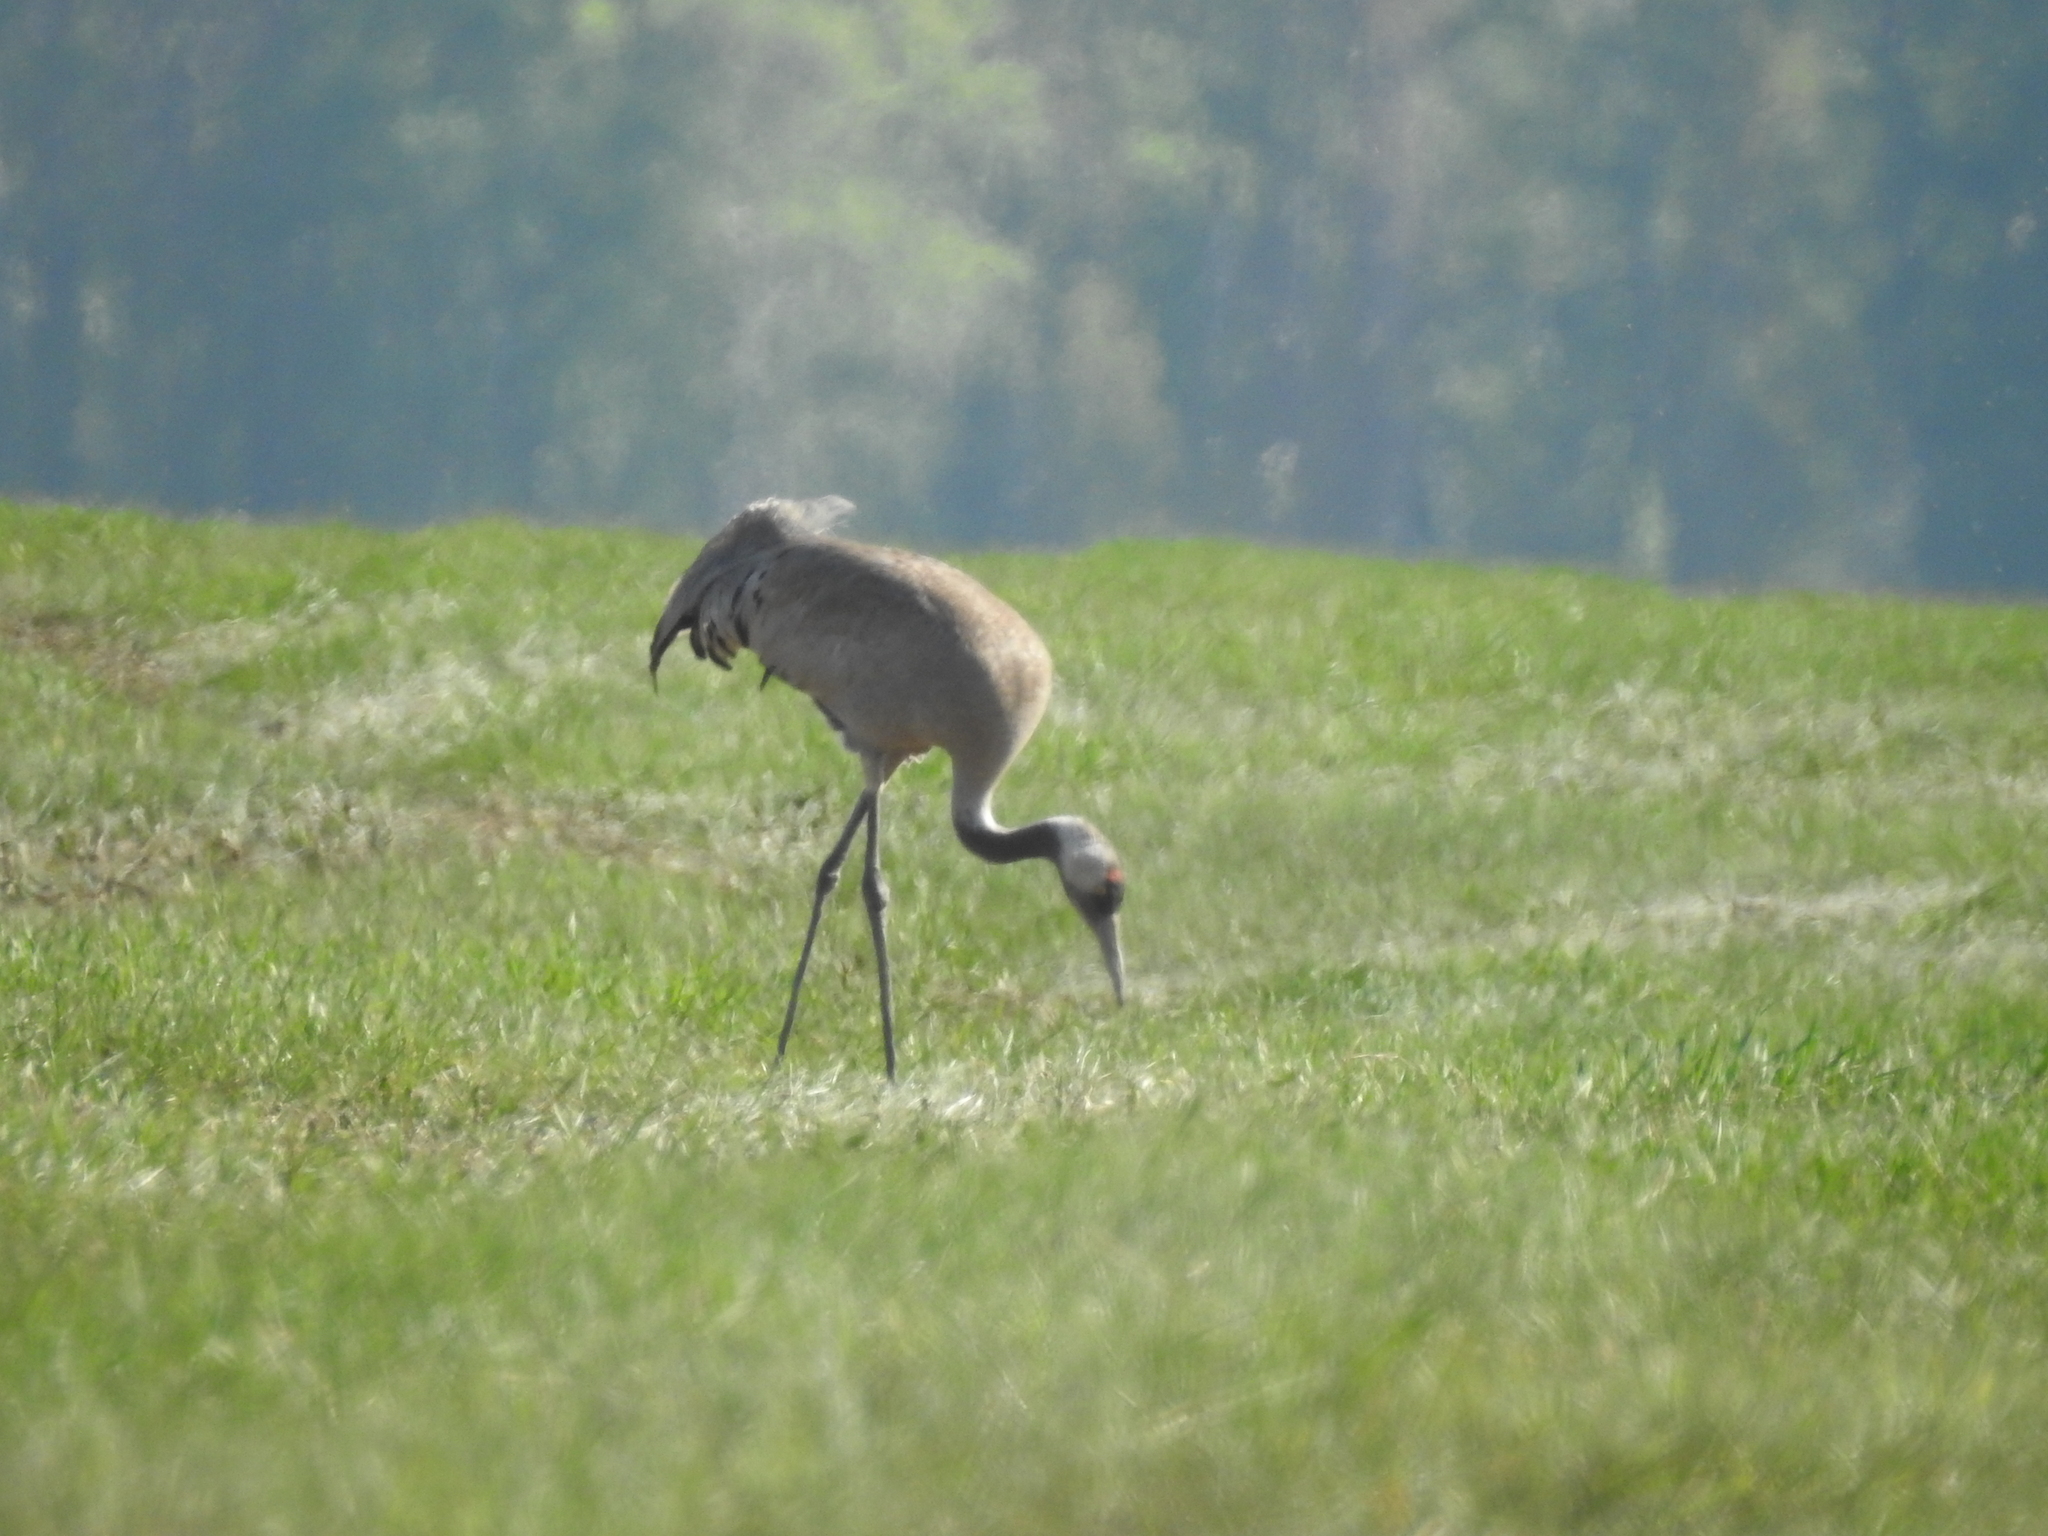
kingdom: Animalia
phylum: Chordata
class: Aves
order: Gruiformes
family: Gruidae
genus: Grus
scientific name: Grus grus
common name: Common crane
